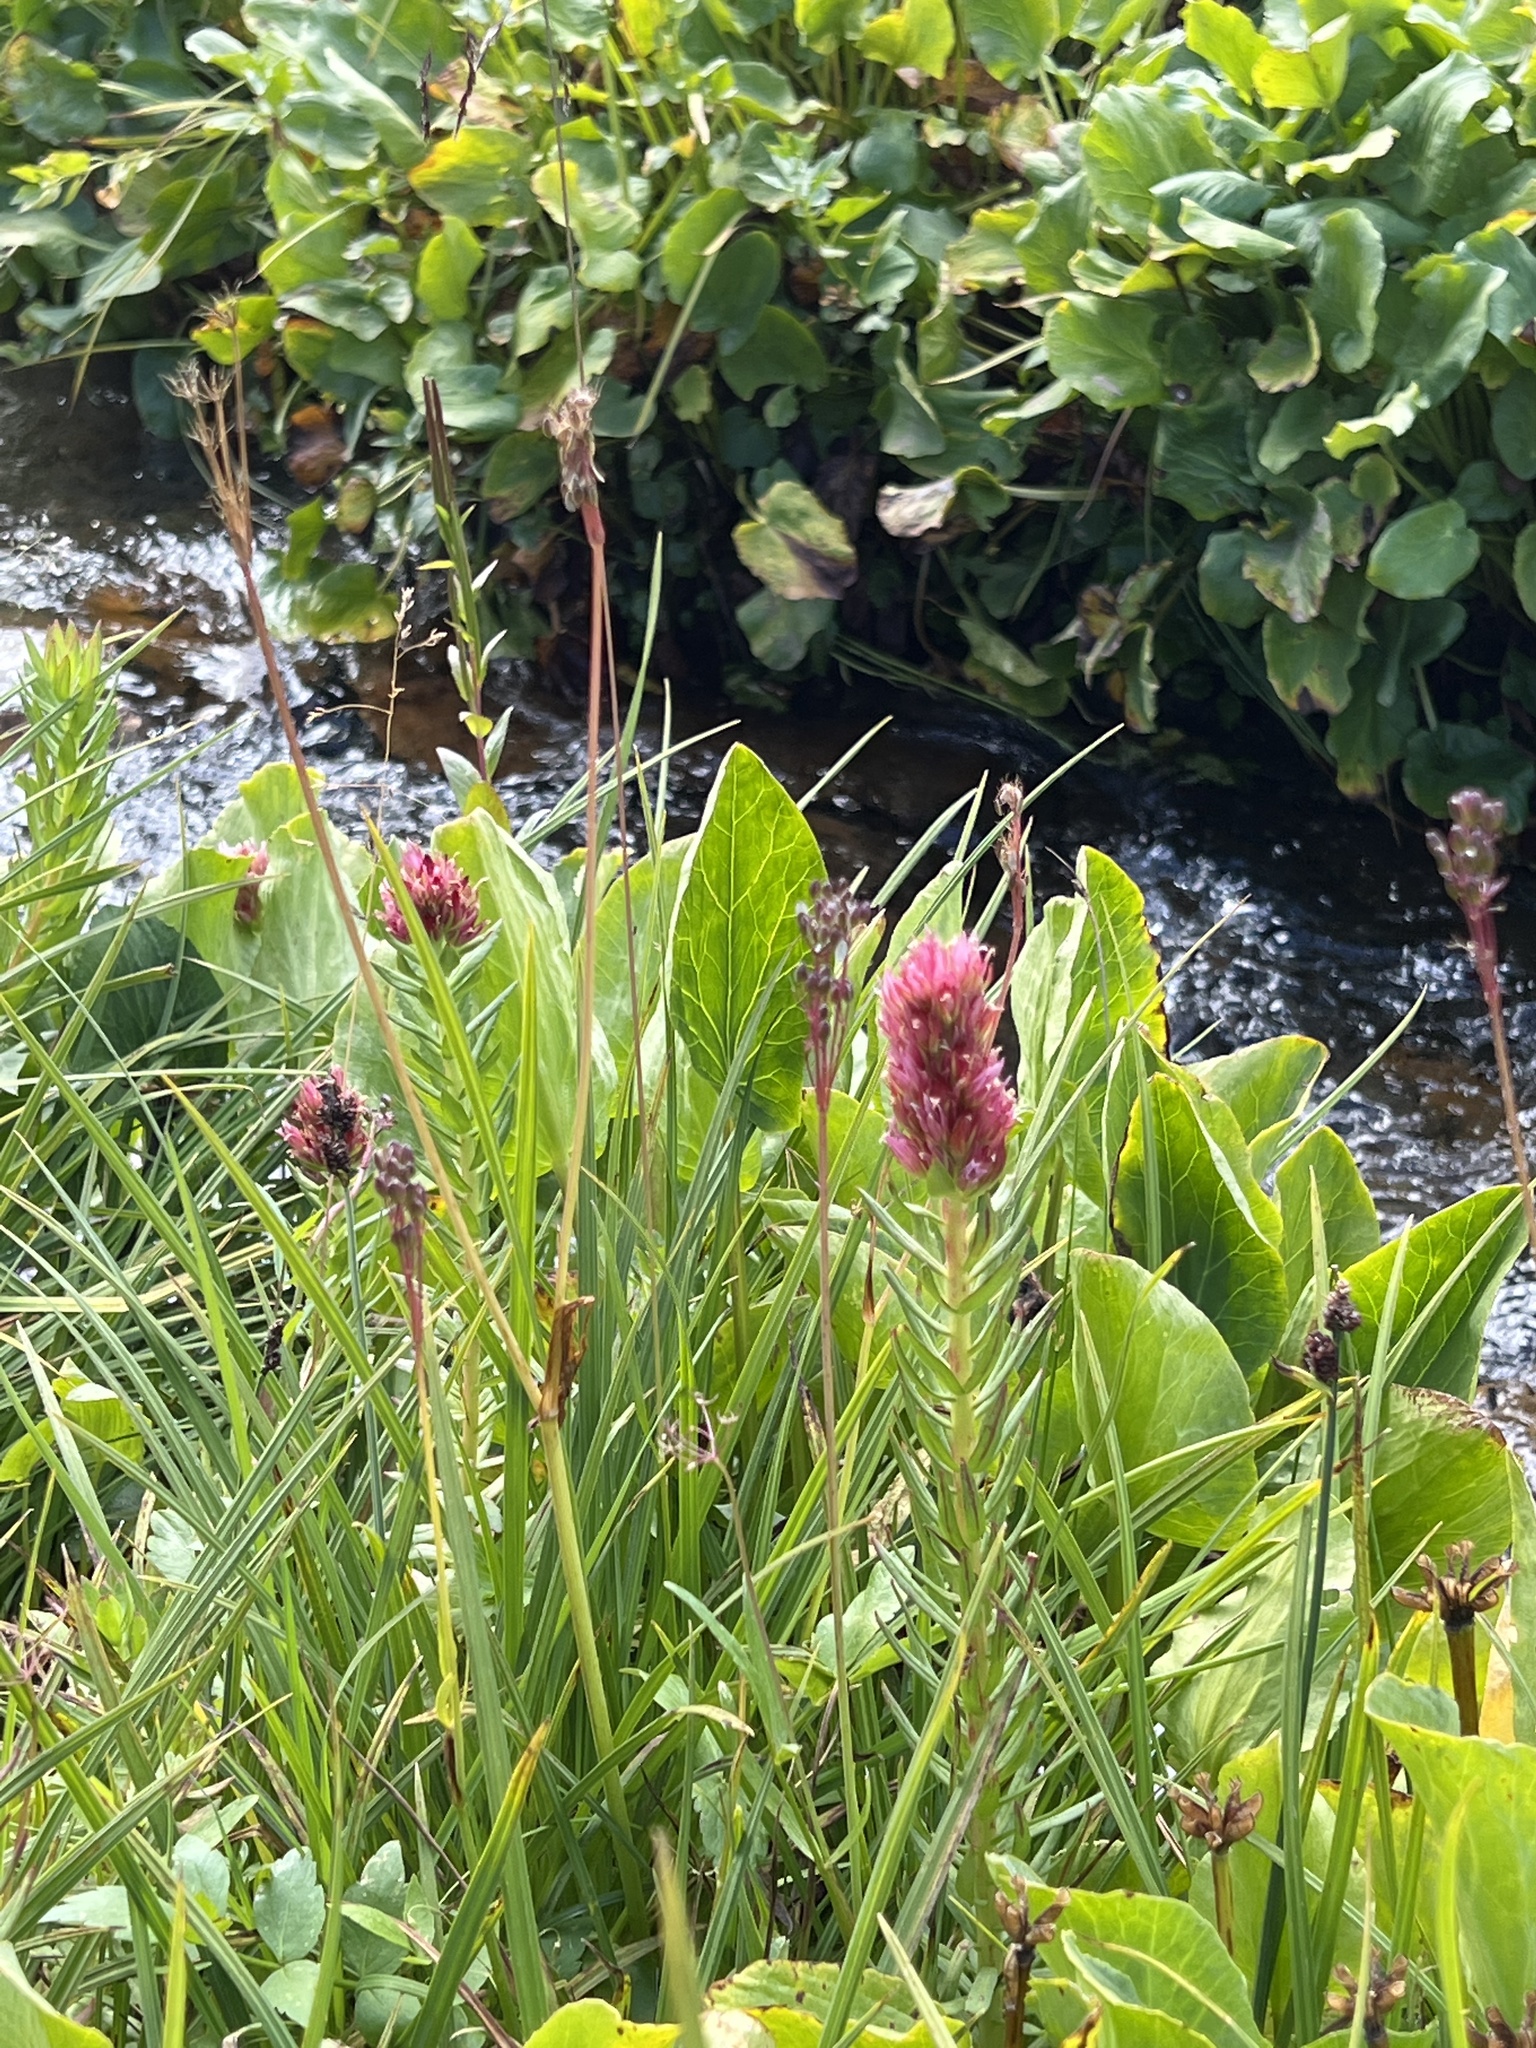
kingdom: Plantae
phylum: Tracheophyta
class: Magnoliopsida
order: Saxifragales
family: Crassulaceae
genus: Rhodiola
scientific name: Rhodiola rhodantha
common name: Red orpine
